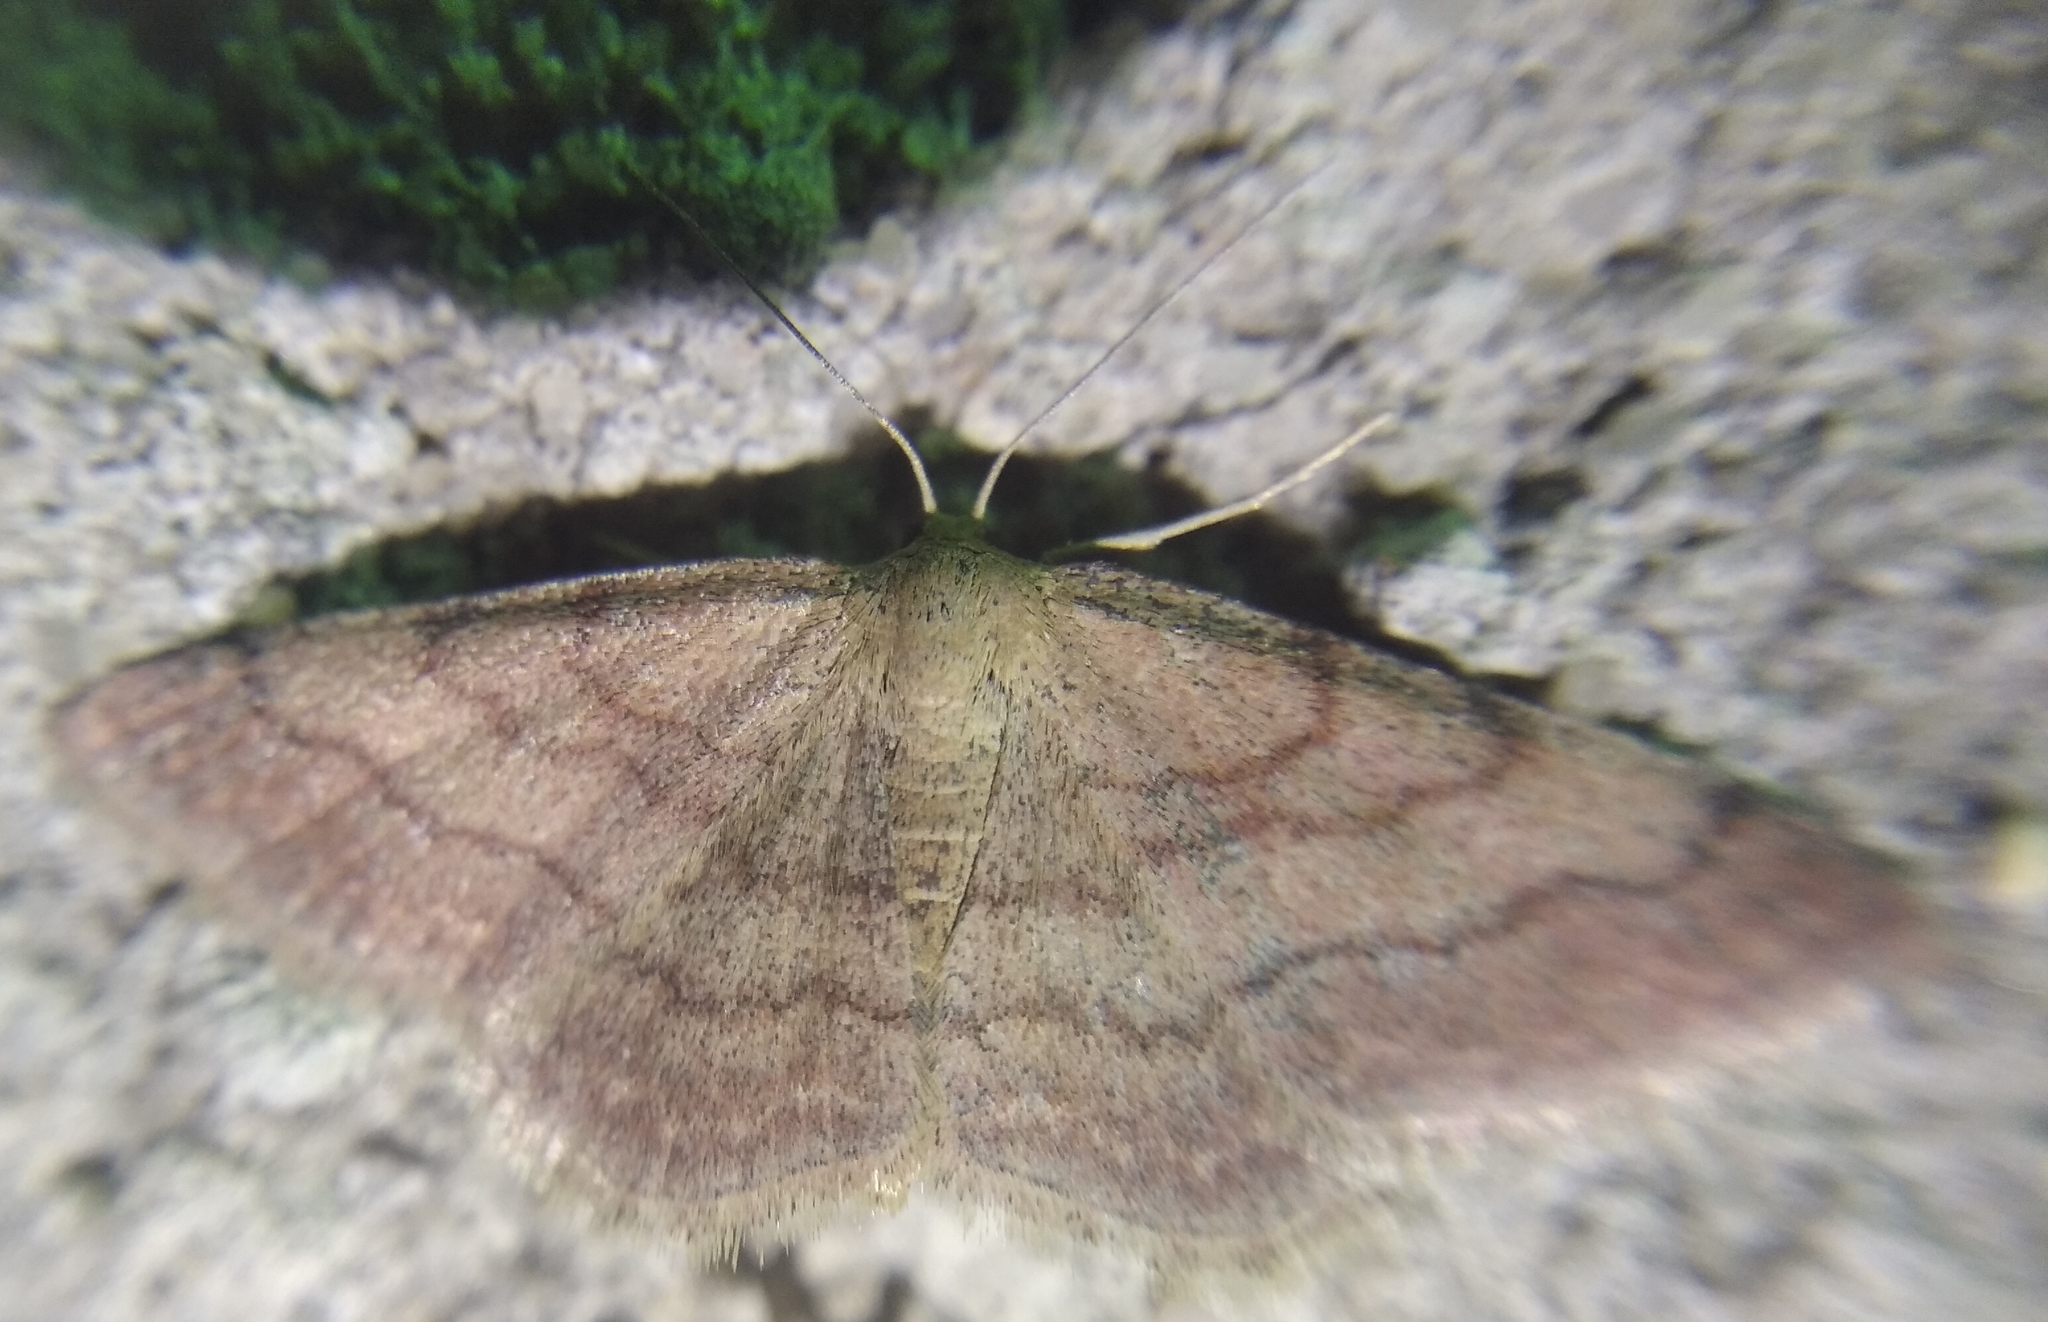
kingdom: Animalia
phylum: Arthropoda
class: Insecta
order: Lepidoptera
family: Geometridae
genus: Scopula
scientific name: Scopula rubiginata
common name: Tawny wave
